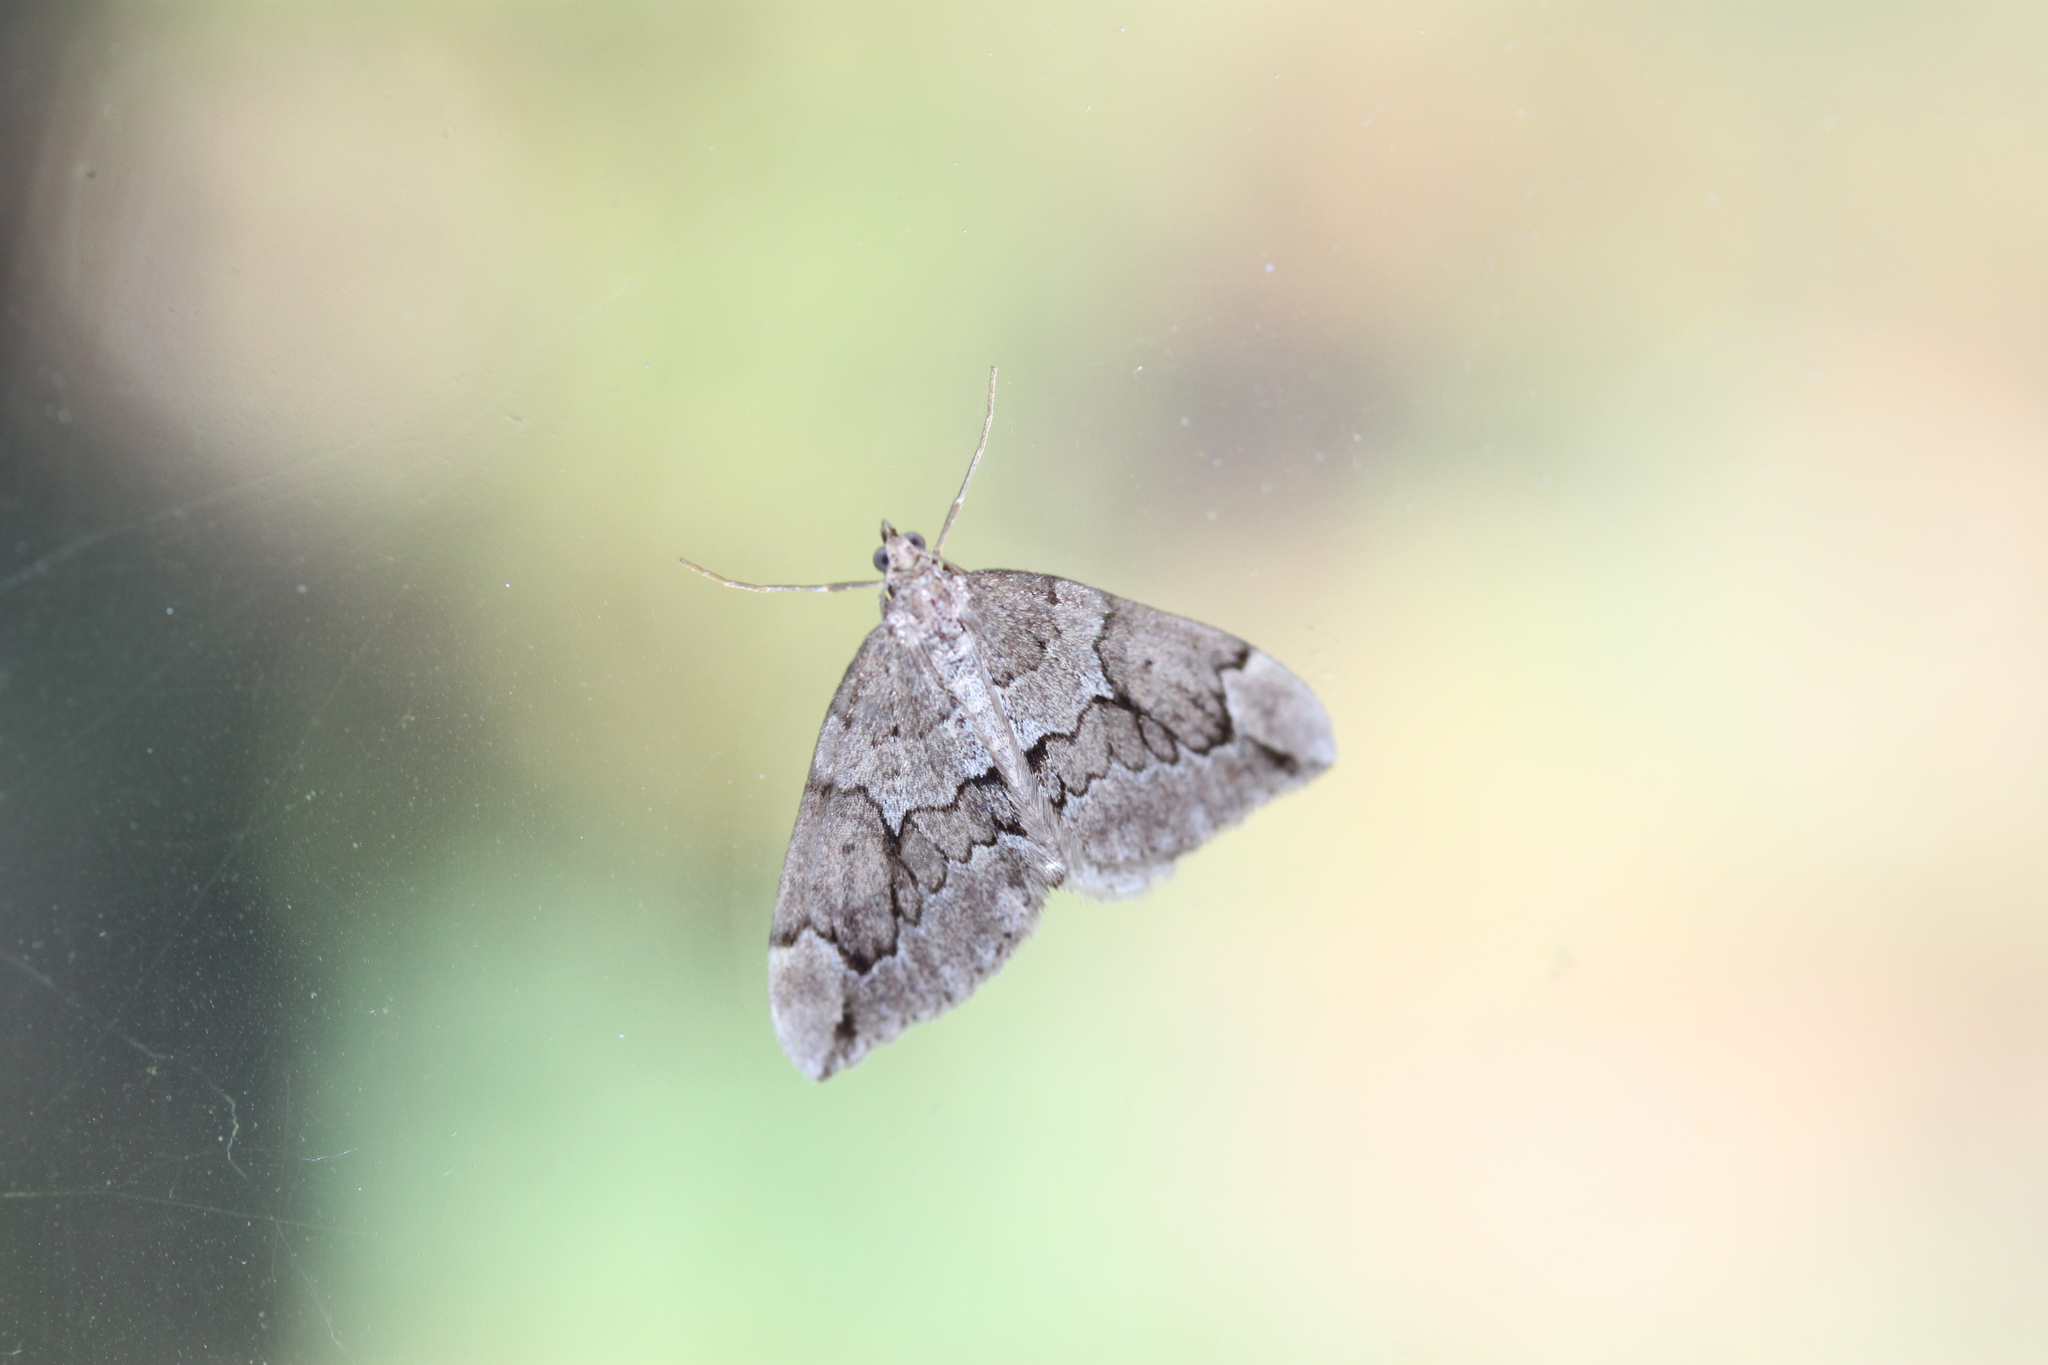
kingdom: Animalia
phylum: Arthropoda
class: Insecta
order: Lepidoptera
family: Geometridae
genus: Thera
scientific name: Thera juniperata
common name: Juniper carpet
